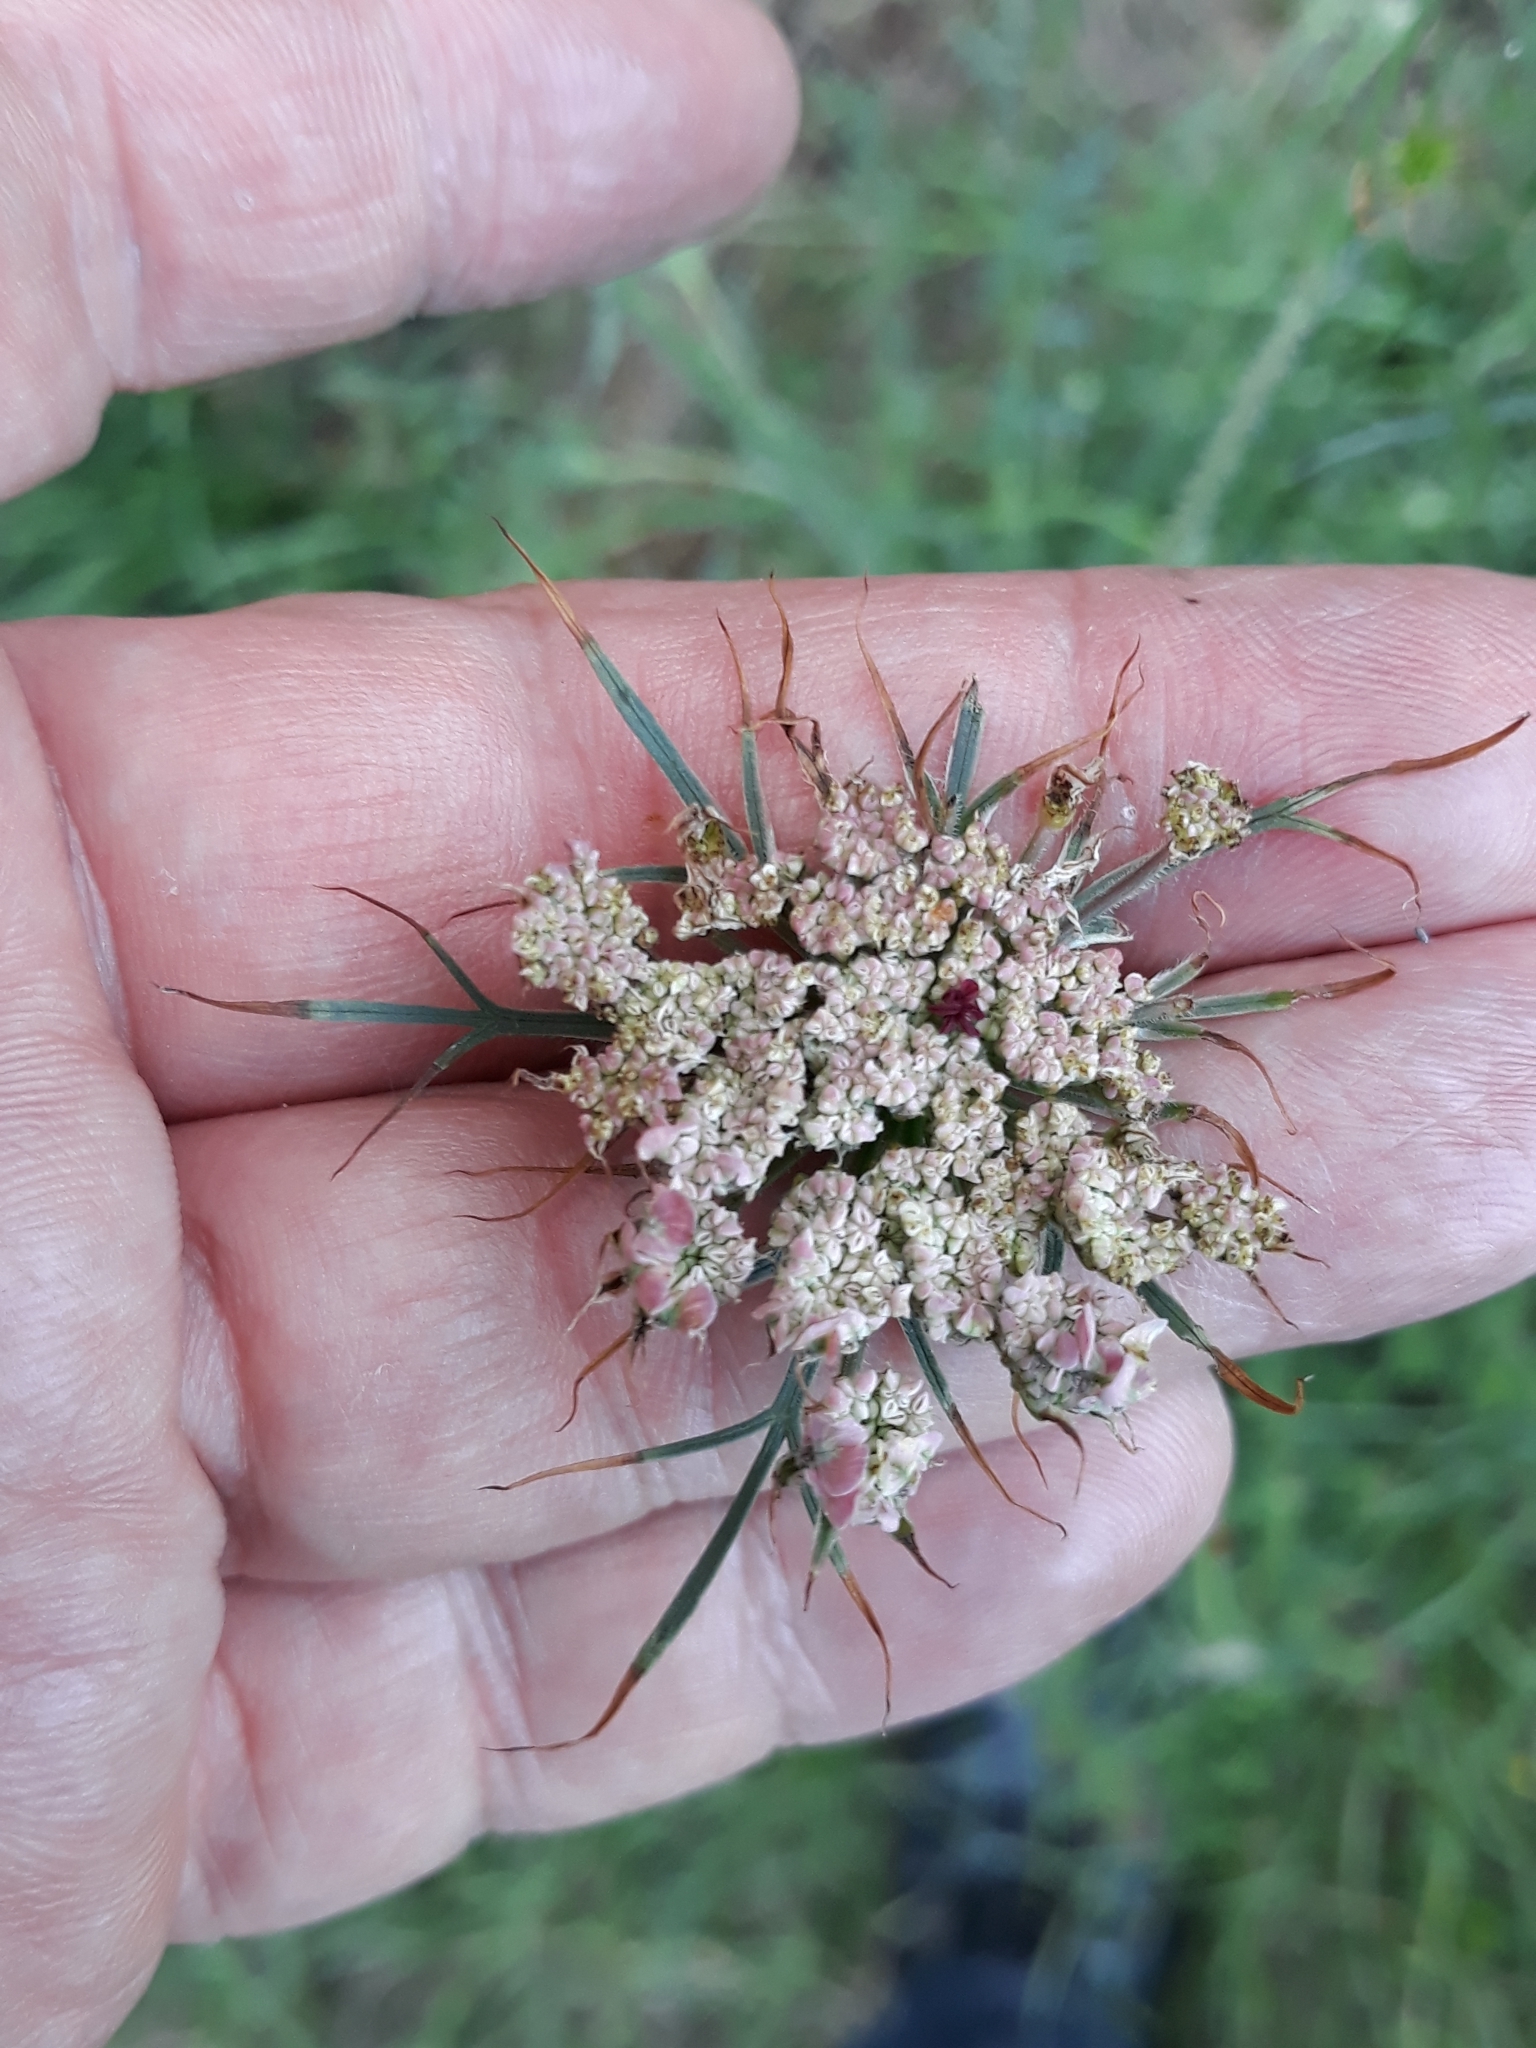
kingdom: Plantae
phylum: Tracheophyta
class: Magnoliopsida
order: Apiales
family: Apiaceae
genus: Daucus
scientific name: Daucus carota
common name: Wild carrot
